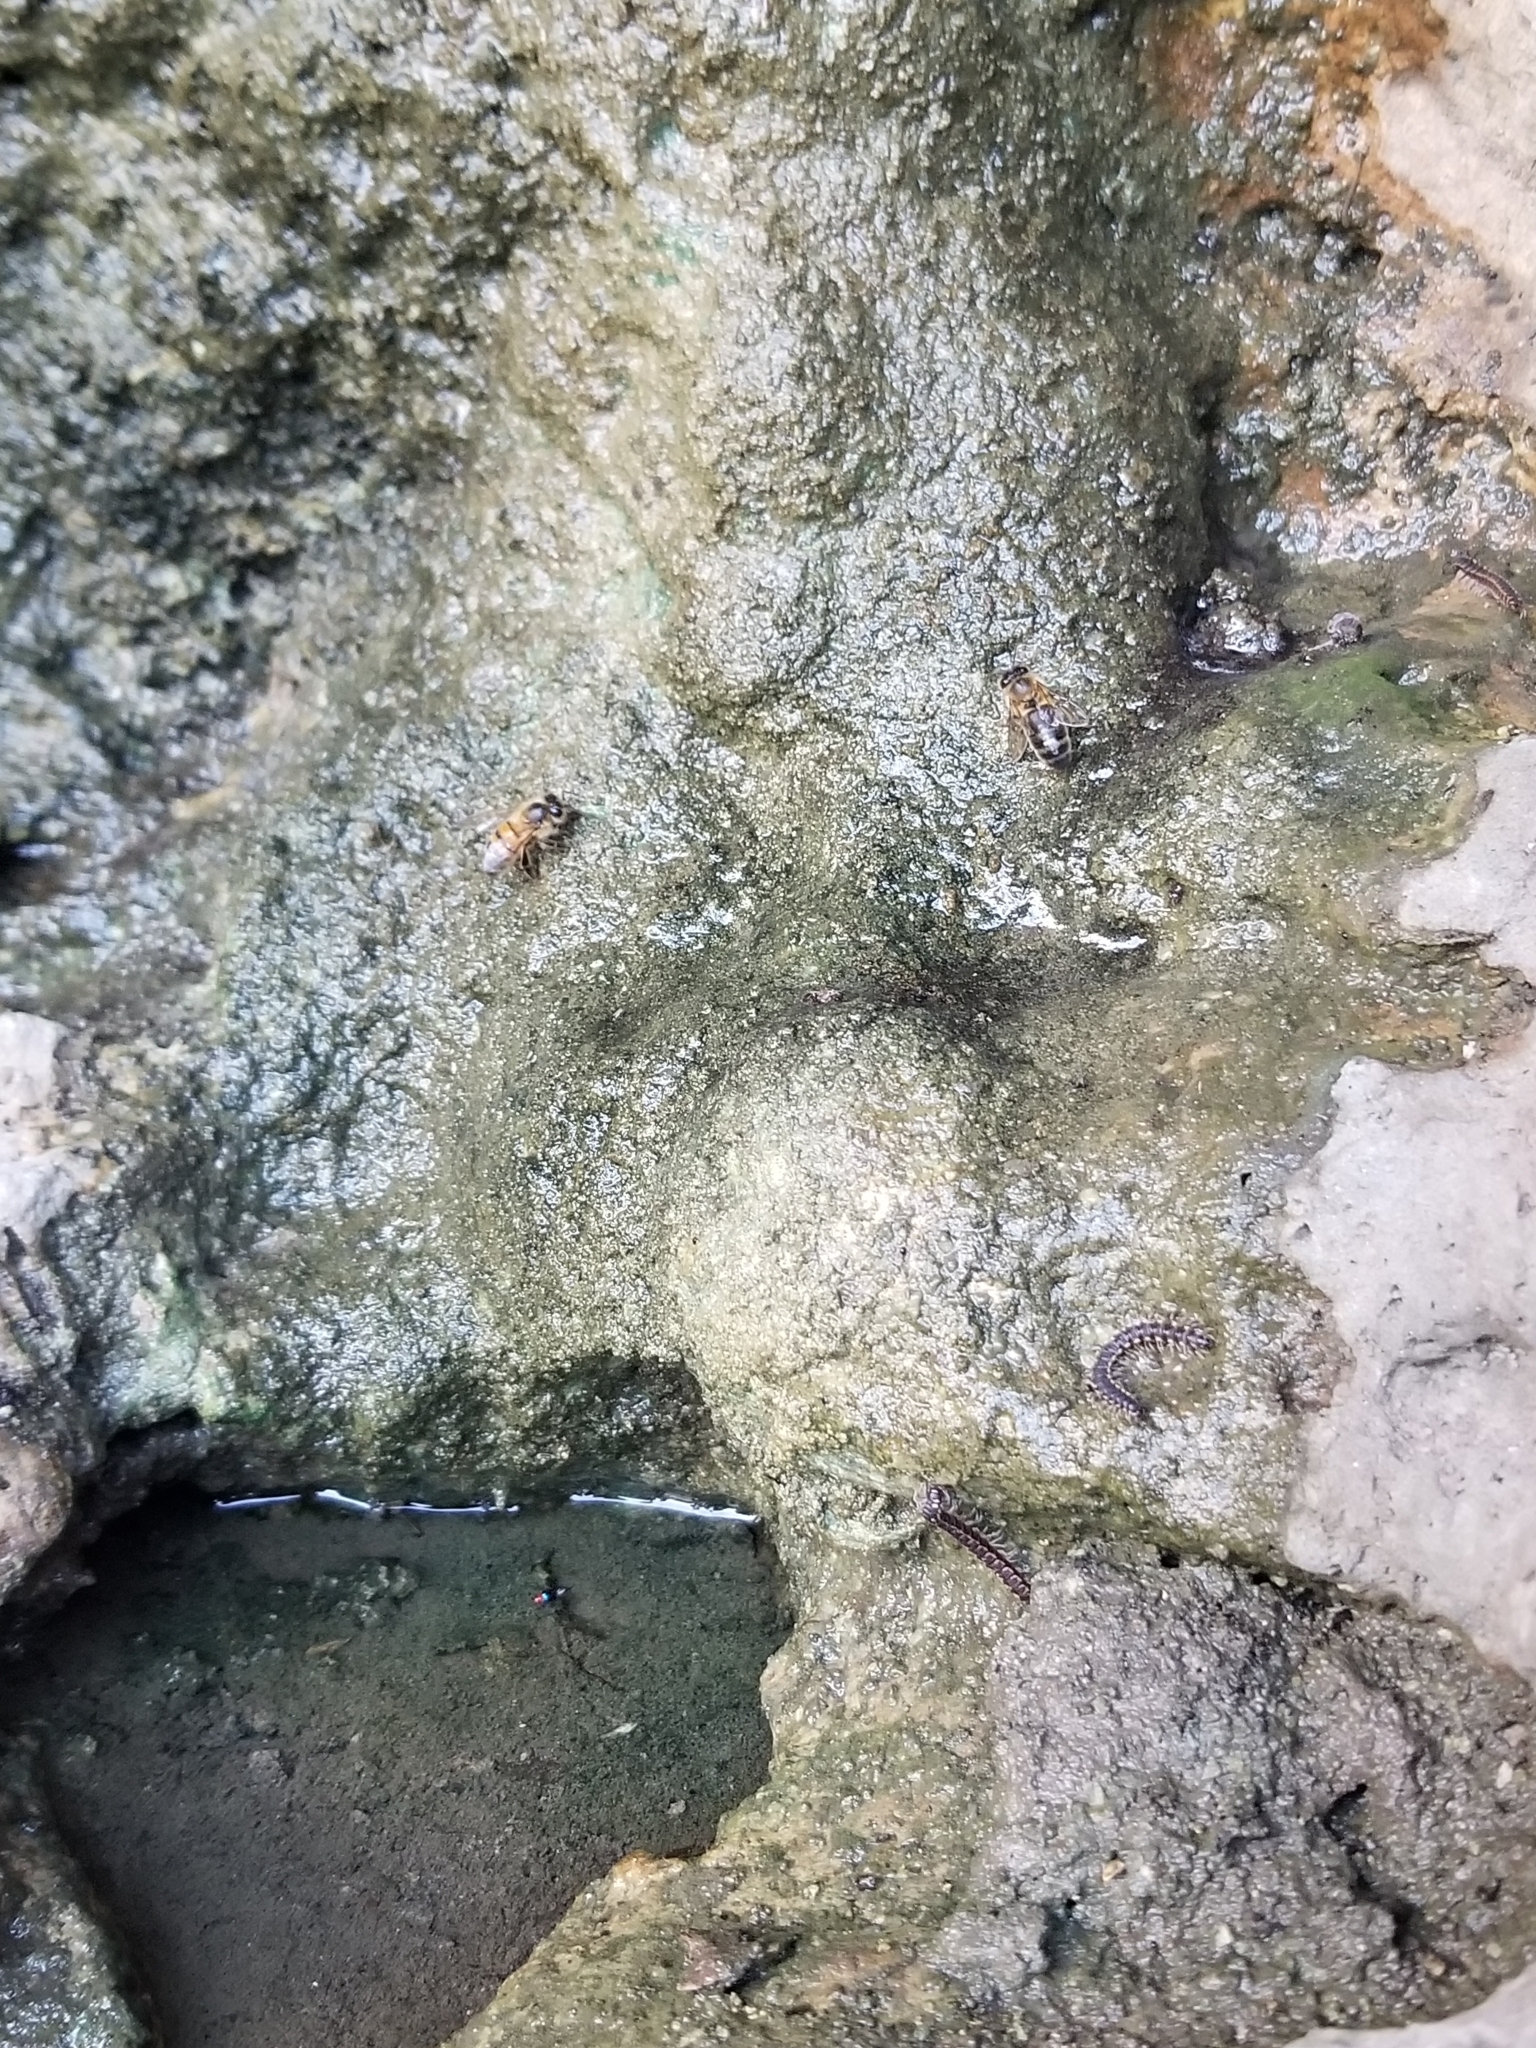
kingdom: Animalia
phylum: Arthropoda
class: Insecta
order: Hymenoptera
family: Apidae
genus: Apis
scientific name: Apis mellifera
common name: Honey bee
